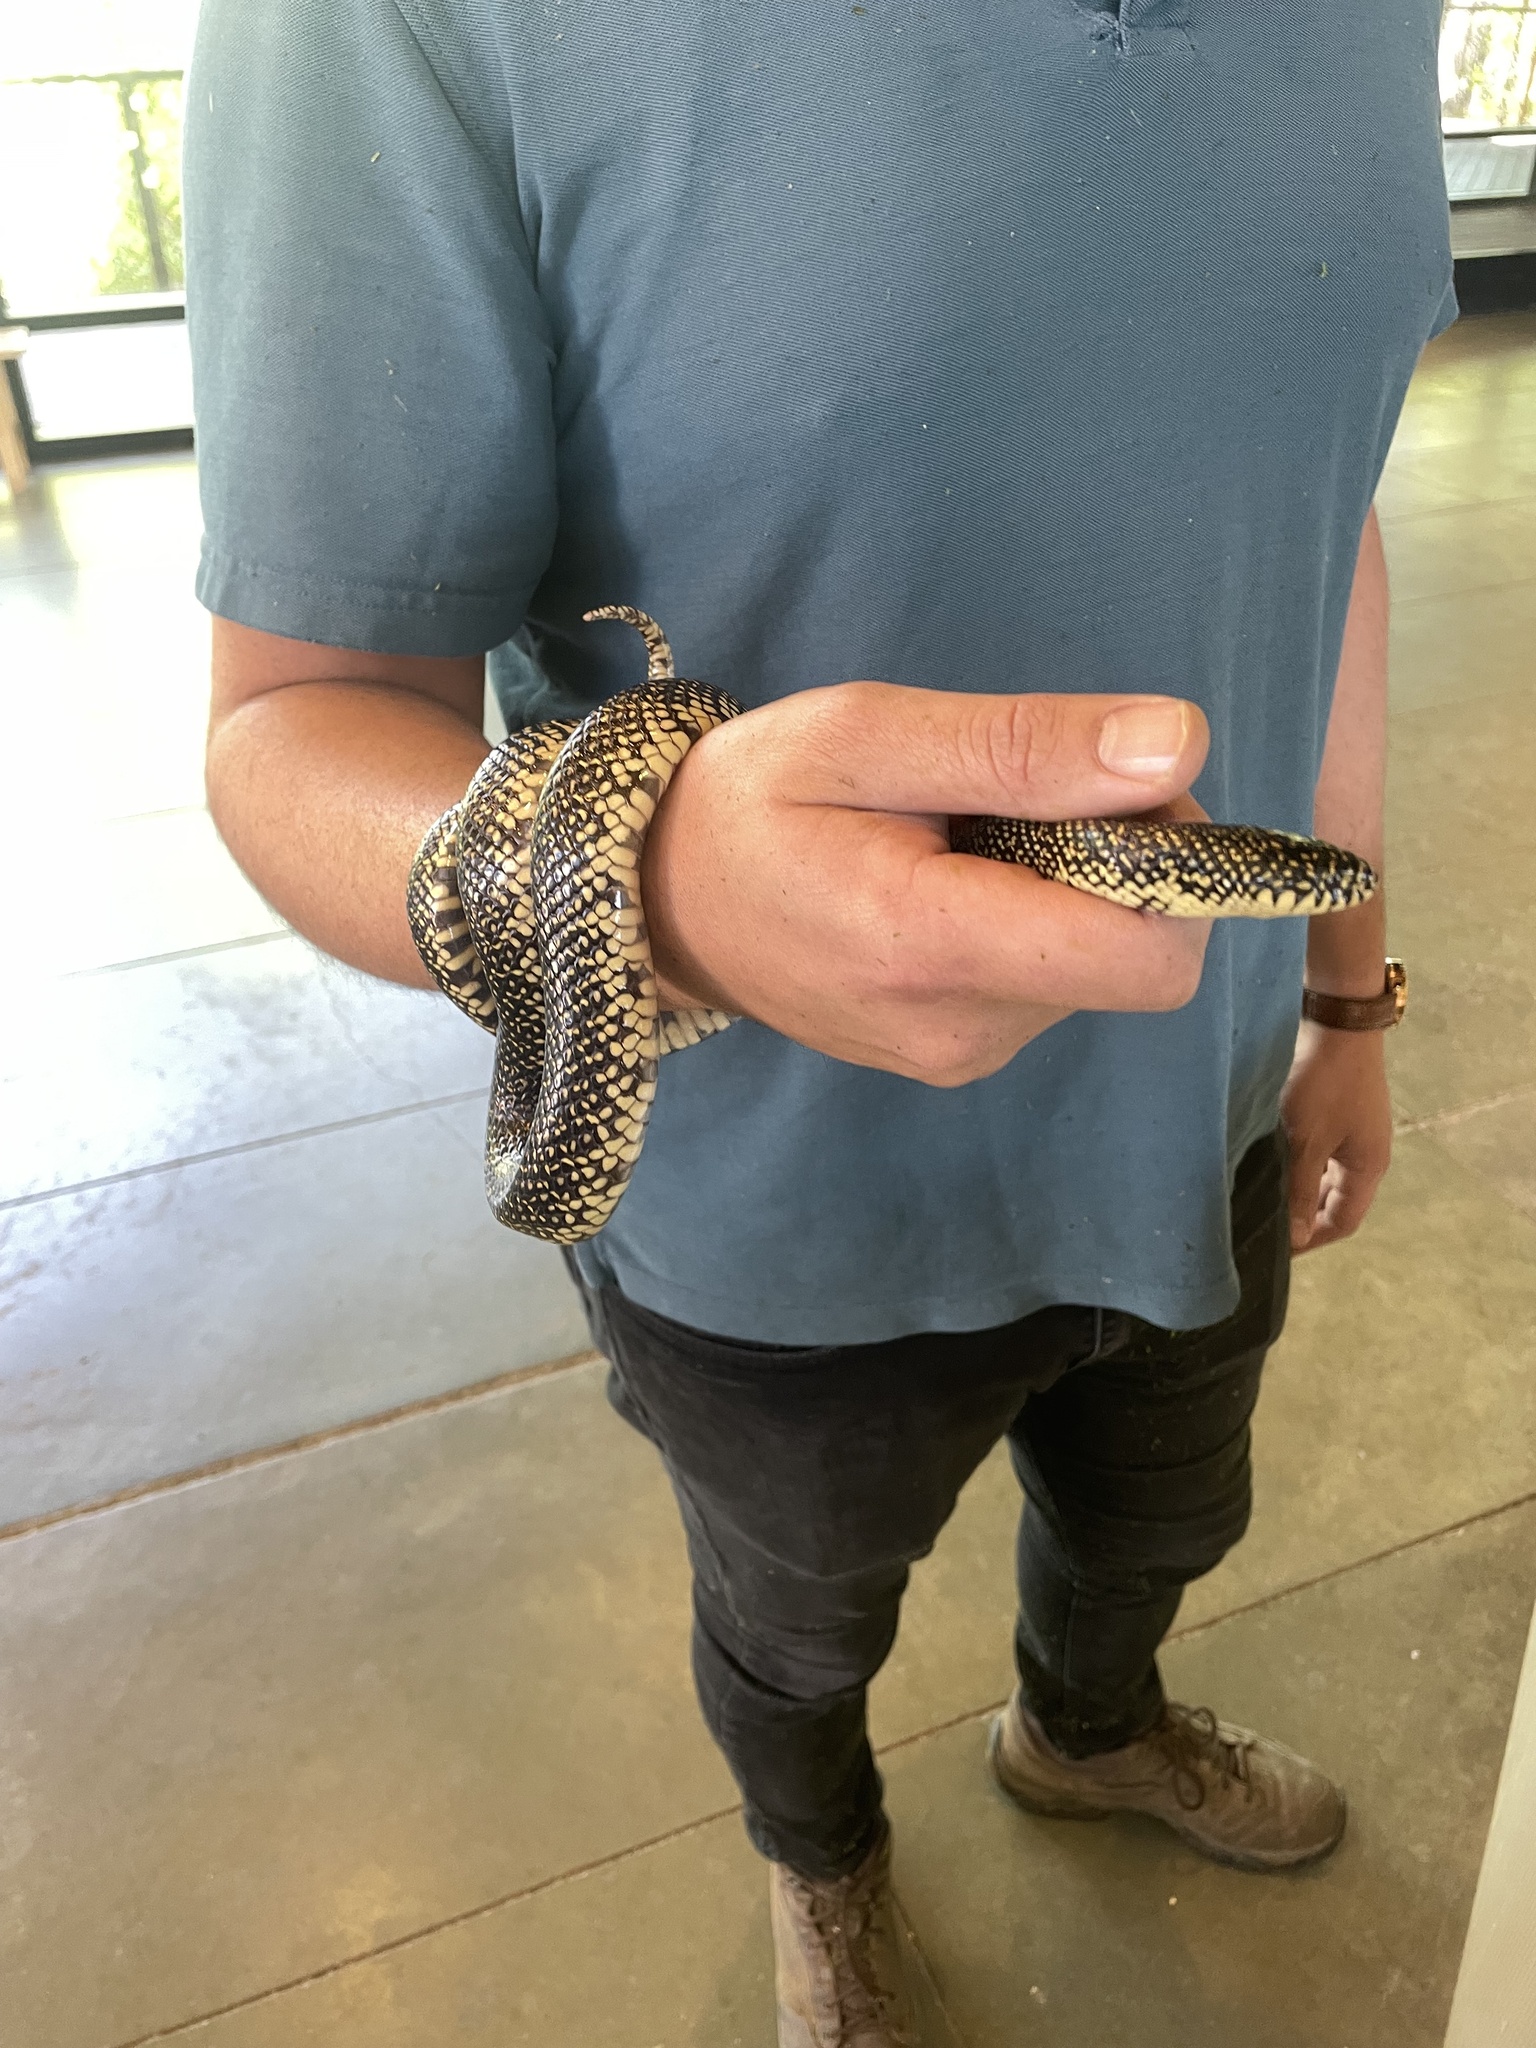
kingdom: Animalia
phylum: Chordata
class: Squamata
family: Colubridae
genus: Lampropeltis
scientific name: Lampropeltis holbrooki
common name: Speckled kingsnake
